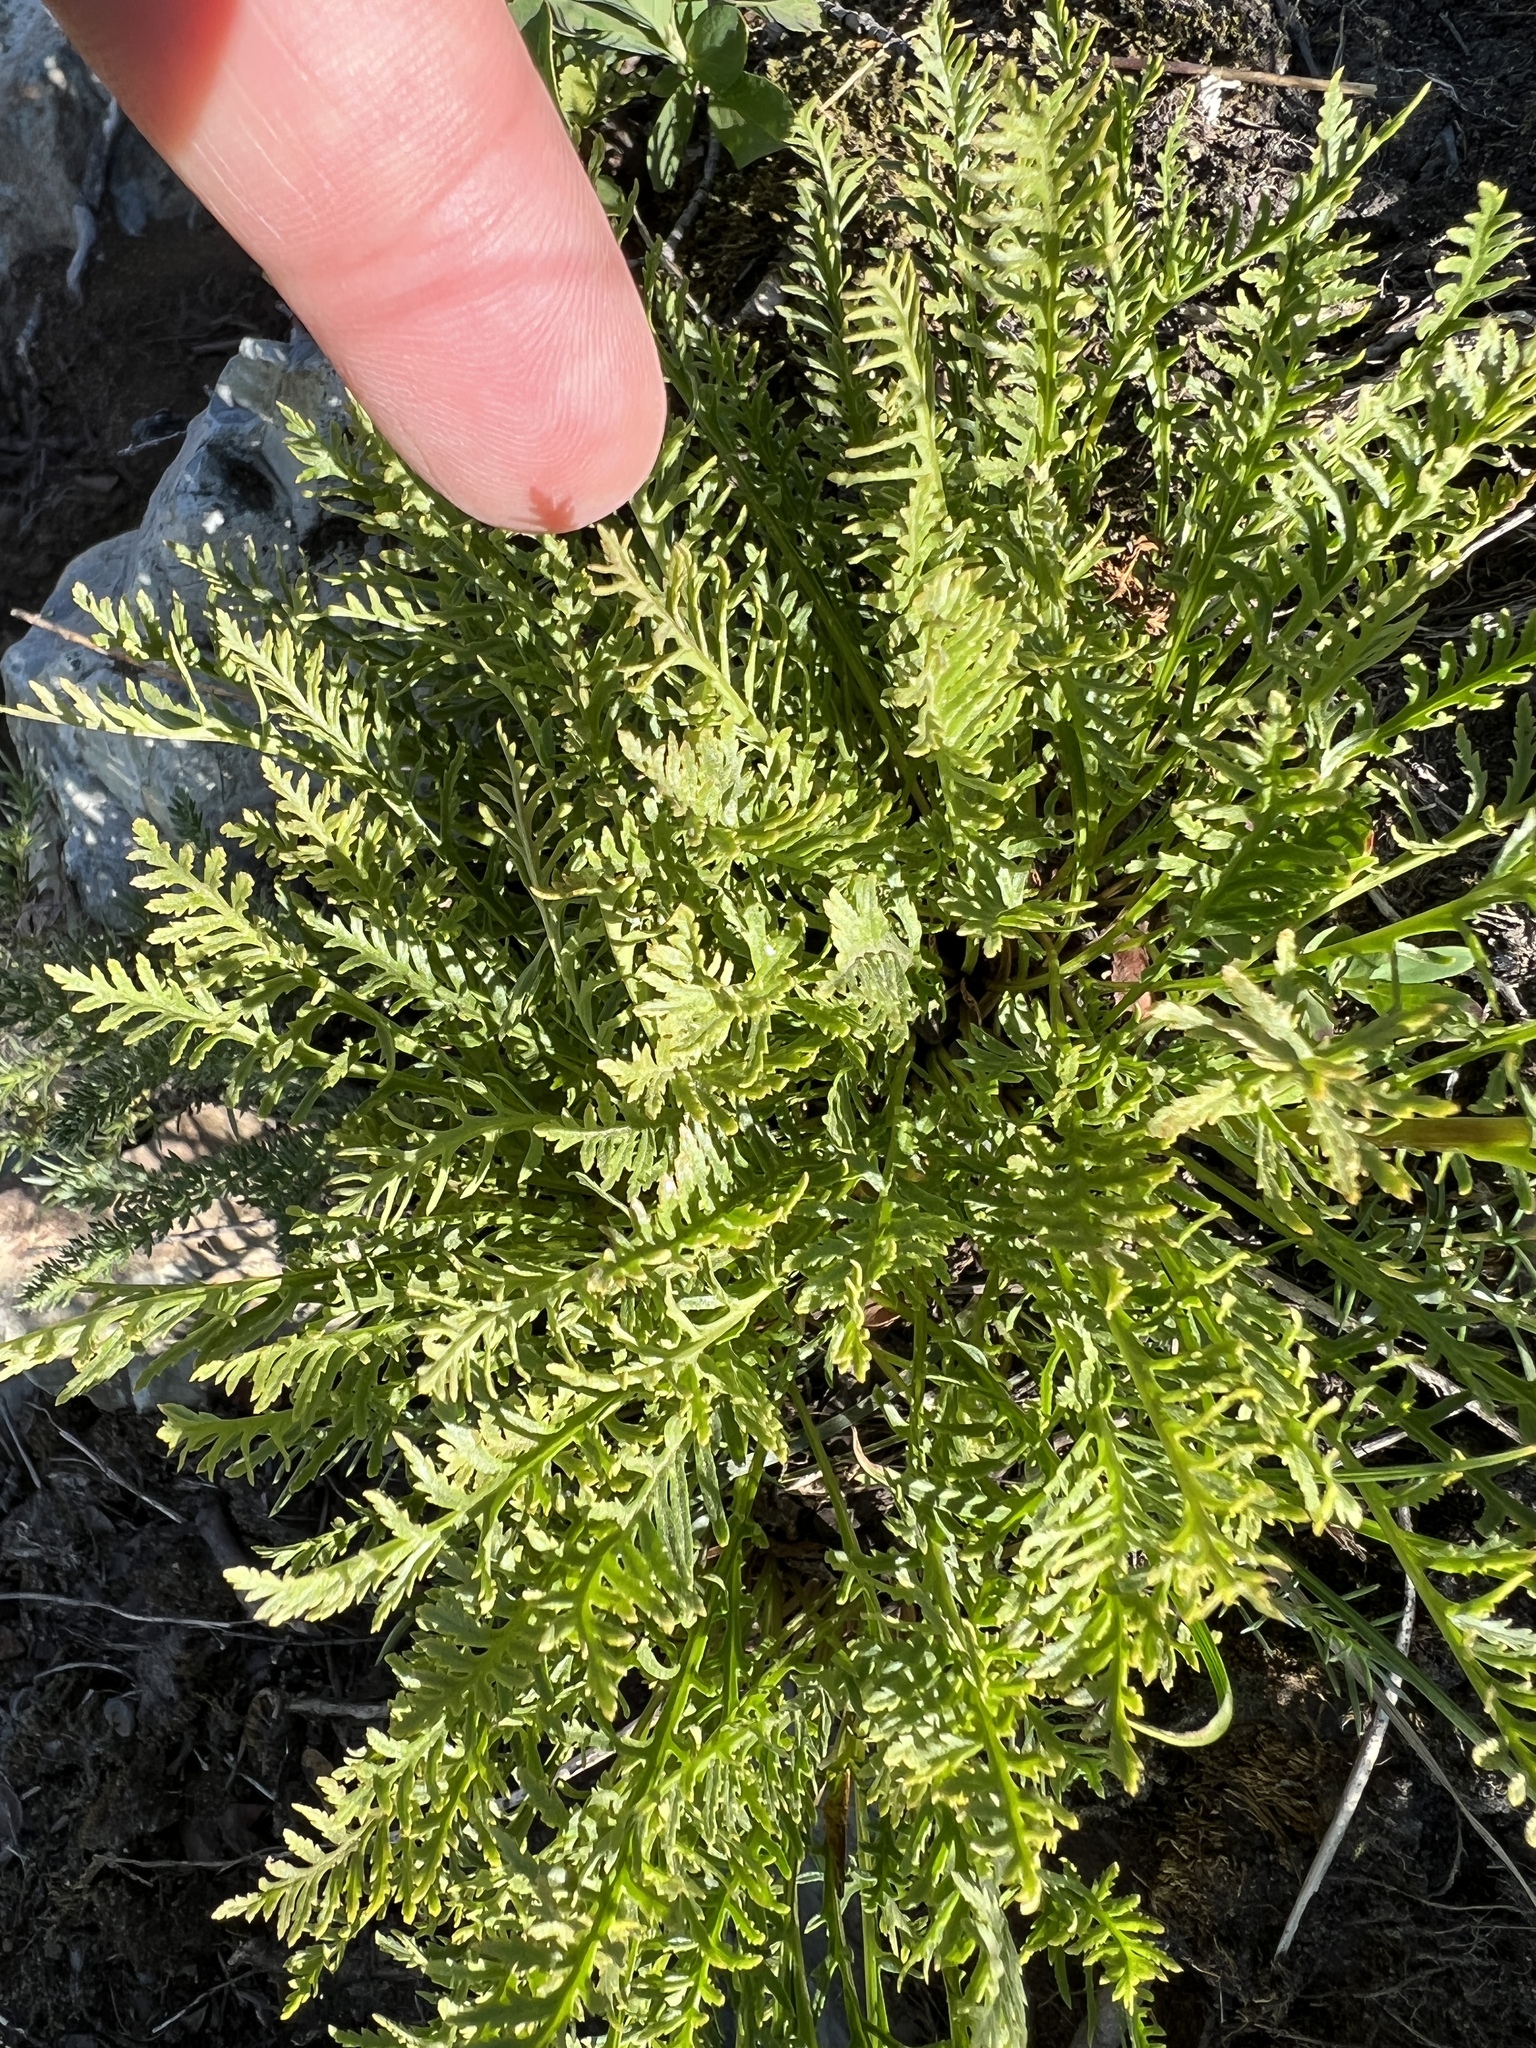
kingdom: Plantae
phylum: Tracheophyta
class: Magnoliopsida
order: Lamiales
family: Orobanchaceae
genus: Pedicularis
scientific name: Pedicularis contorta
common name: Coiled lousewort
